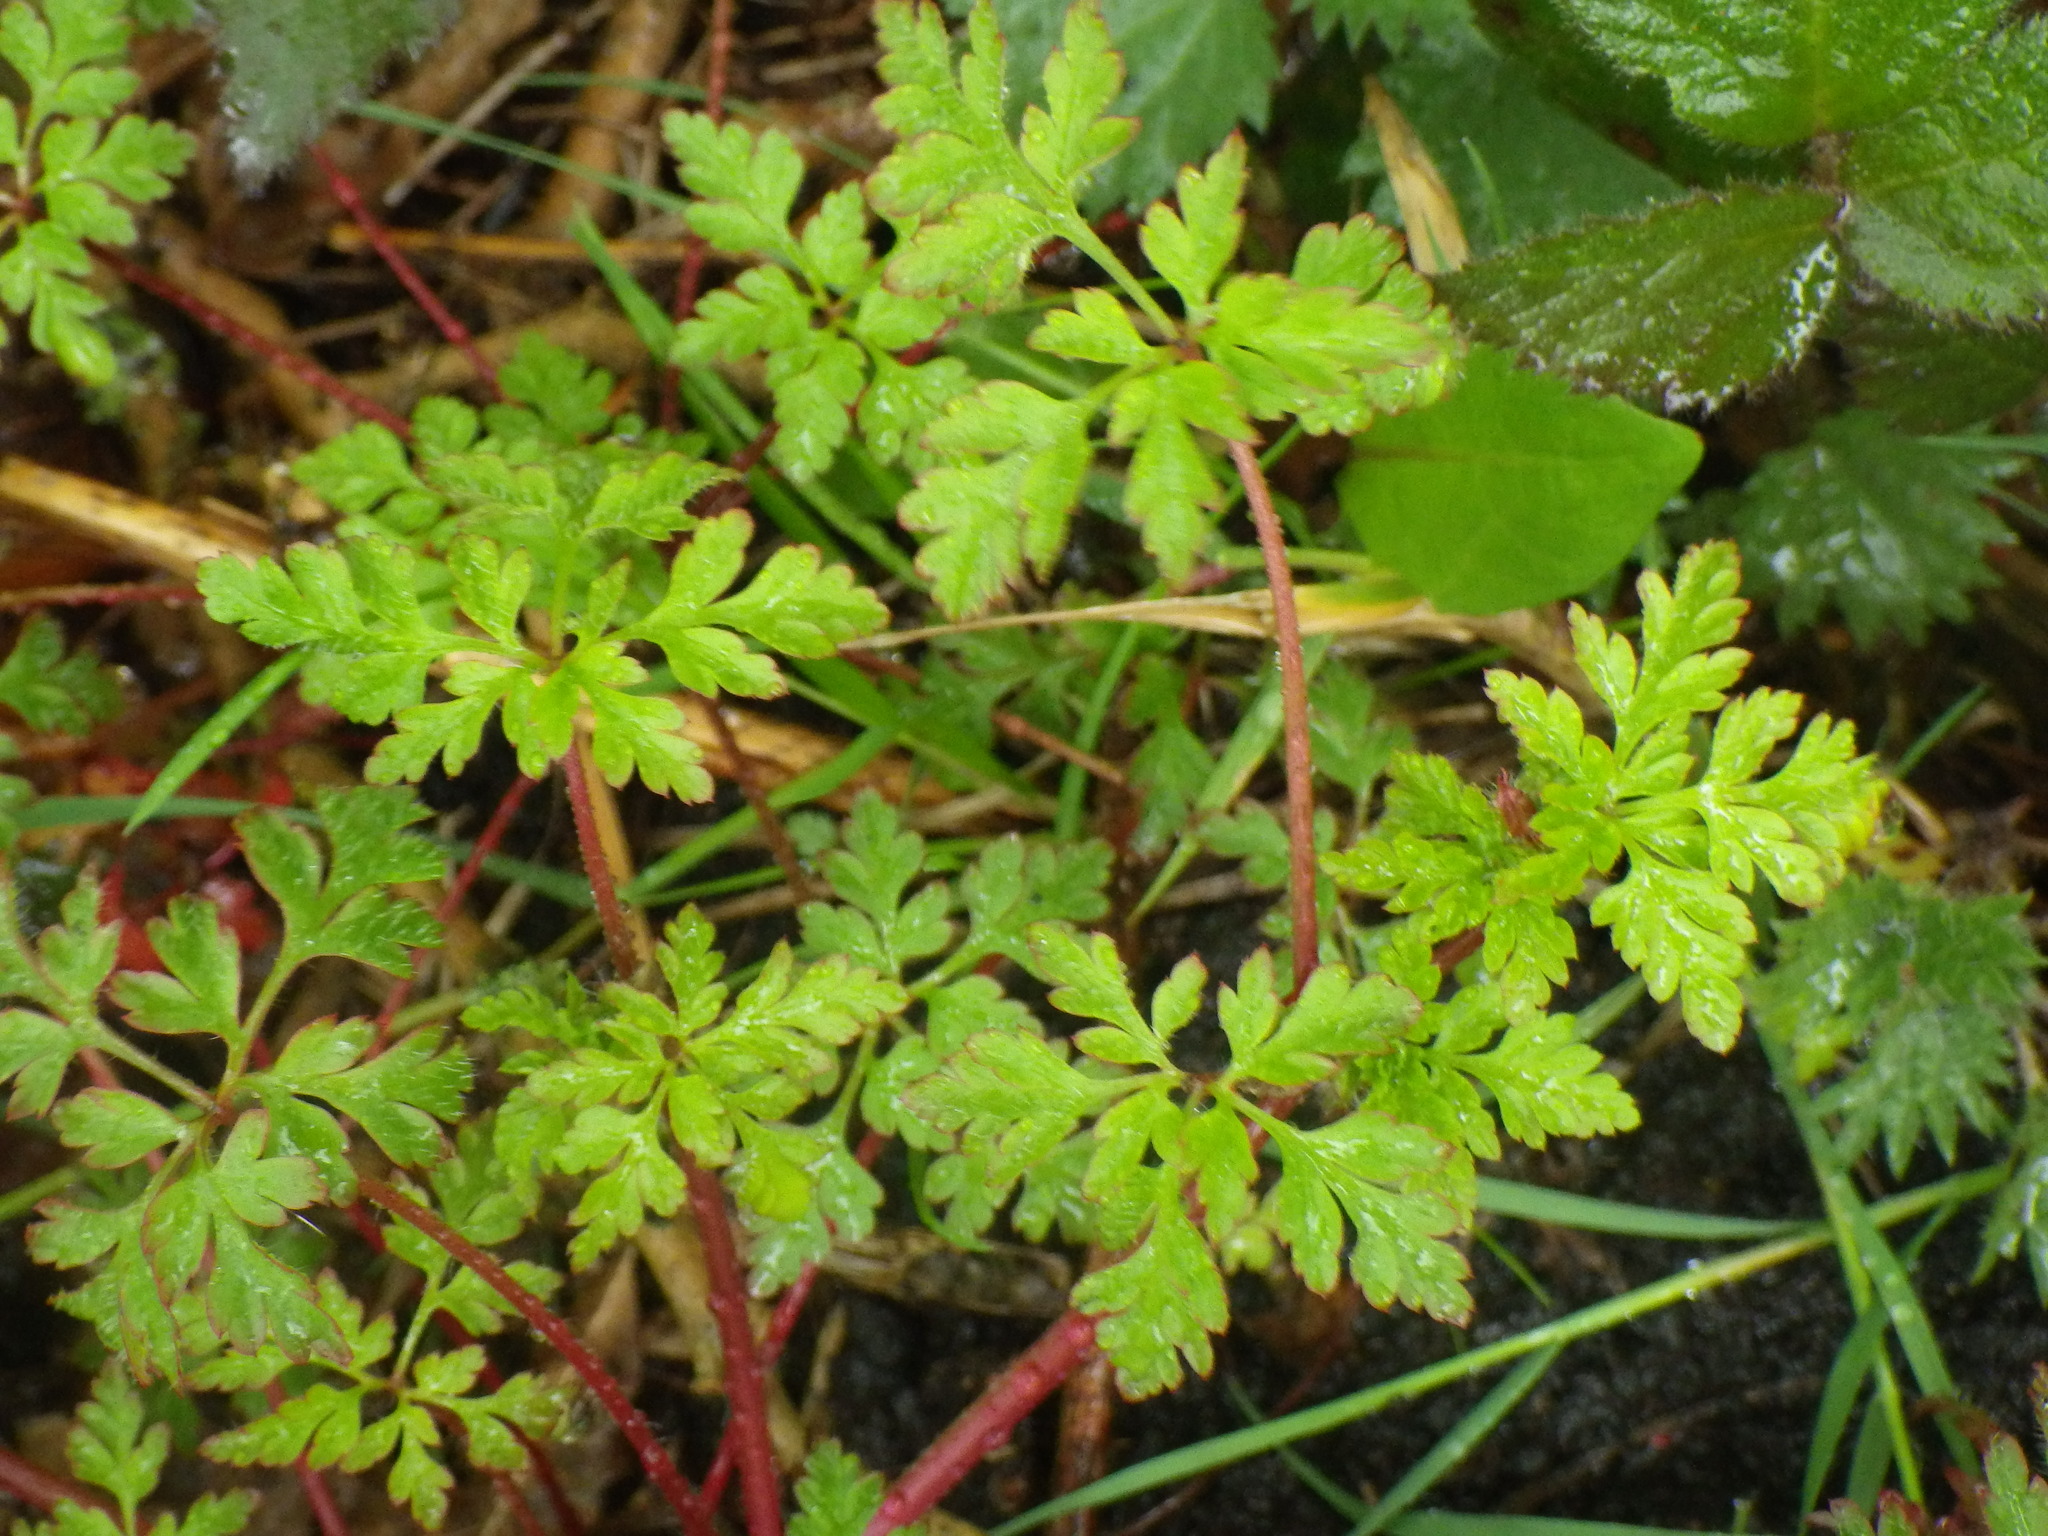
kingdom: Plantae
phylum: Tracheophyta
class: Magnoliopsida
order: Geraniales
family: Geraniaceae
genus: Geranium
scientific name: Geranium robertianum
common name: Herb-robert
